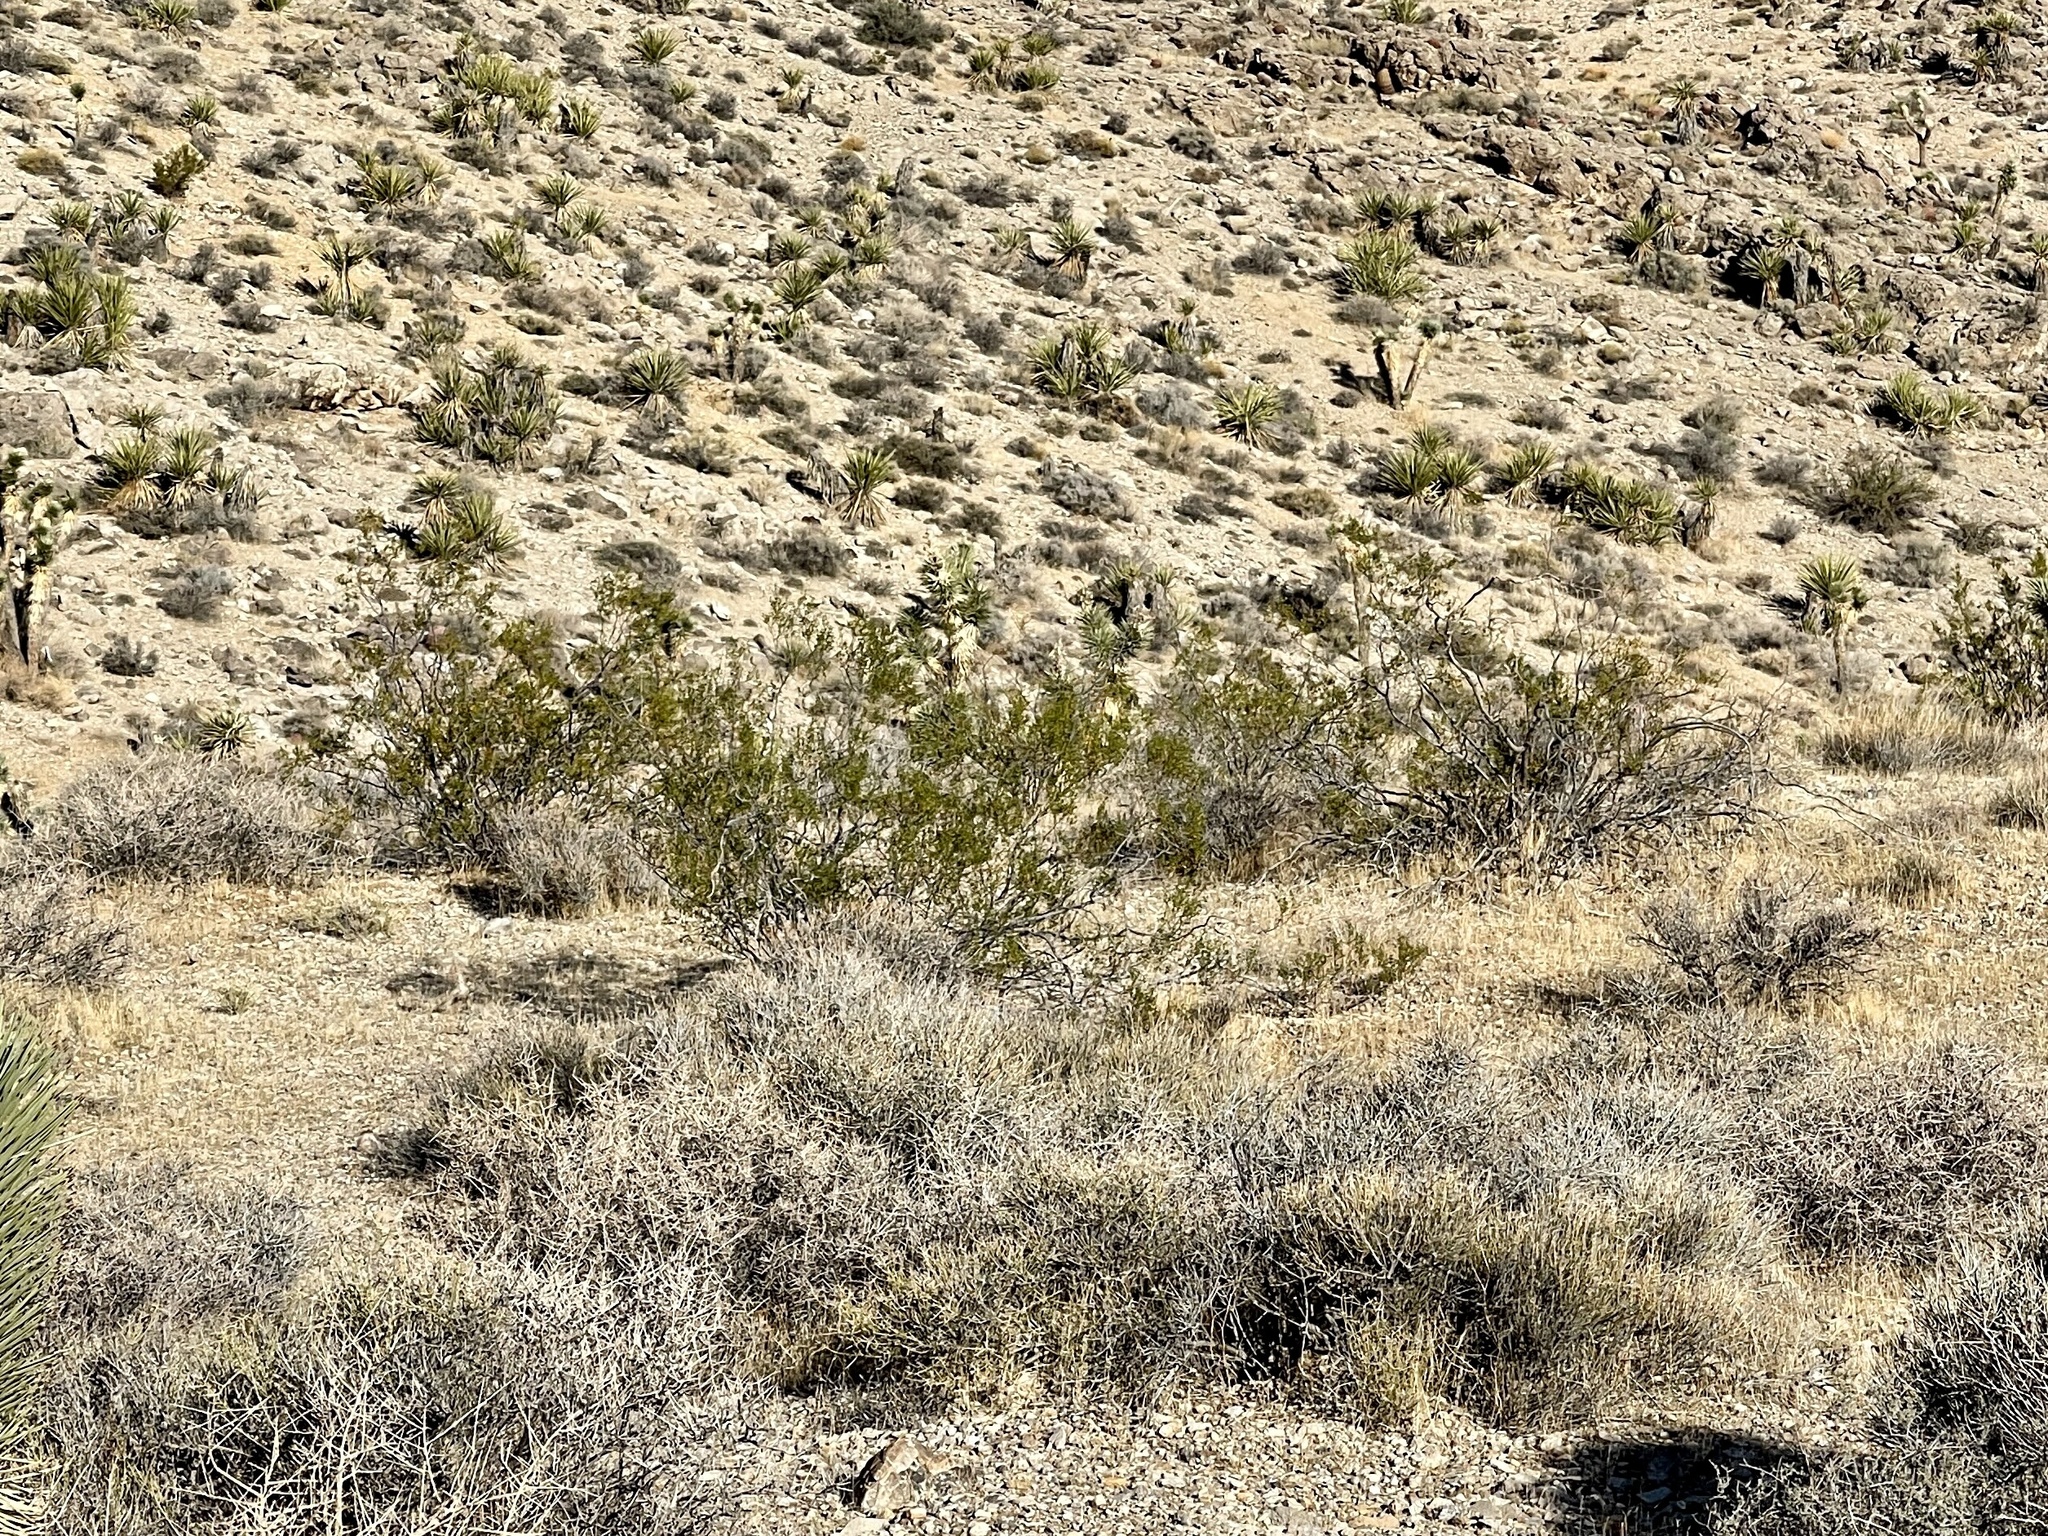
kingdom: Plantae
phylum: Tracheophyta
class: Magnoliopsida
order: Zygophyllales
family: Zygophyllaceae
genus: Larrea
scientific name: Larrea tridentata
